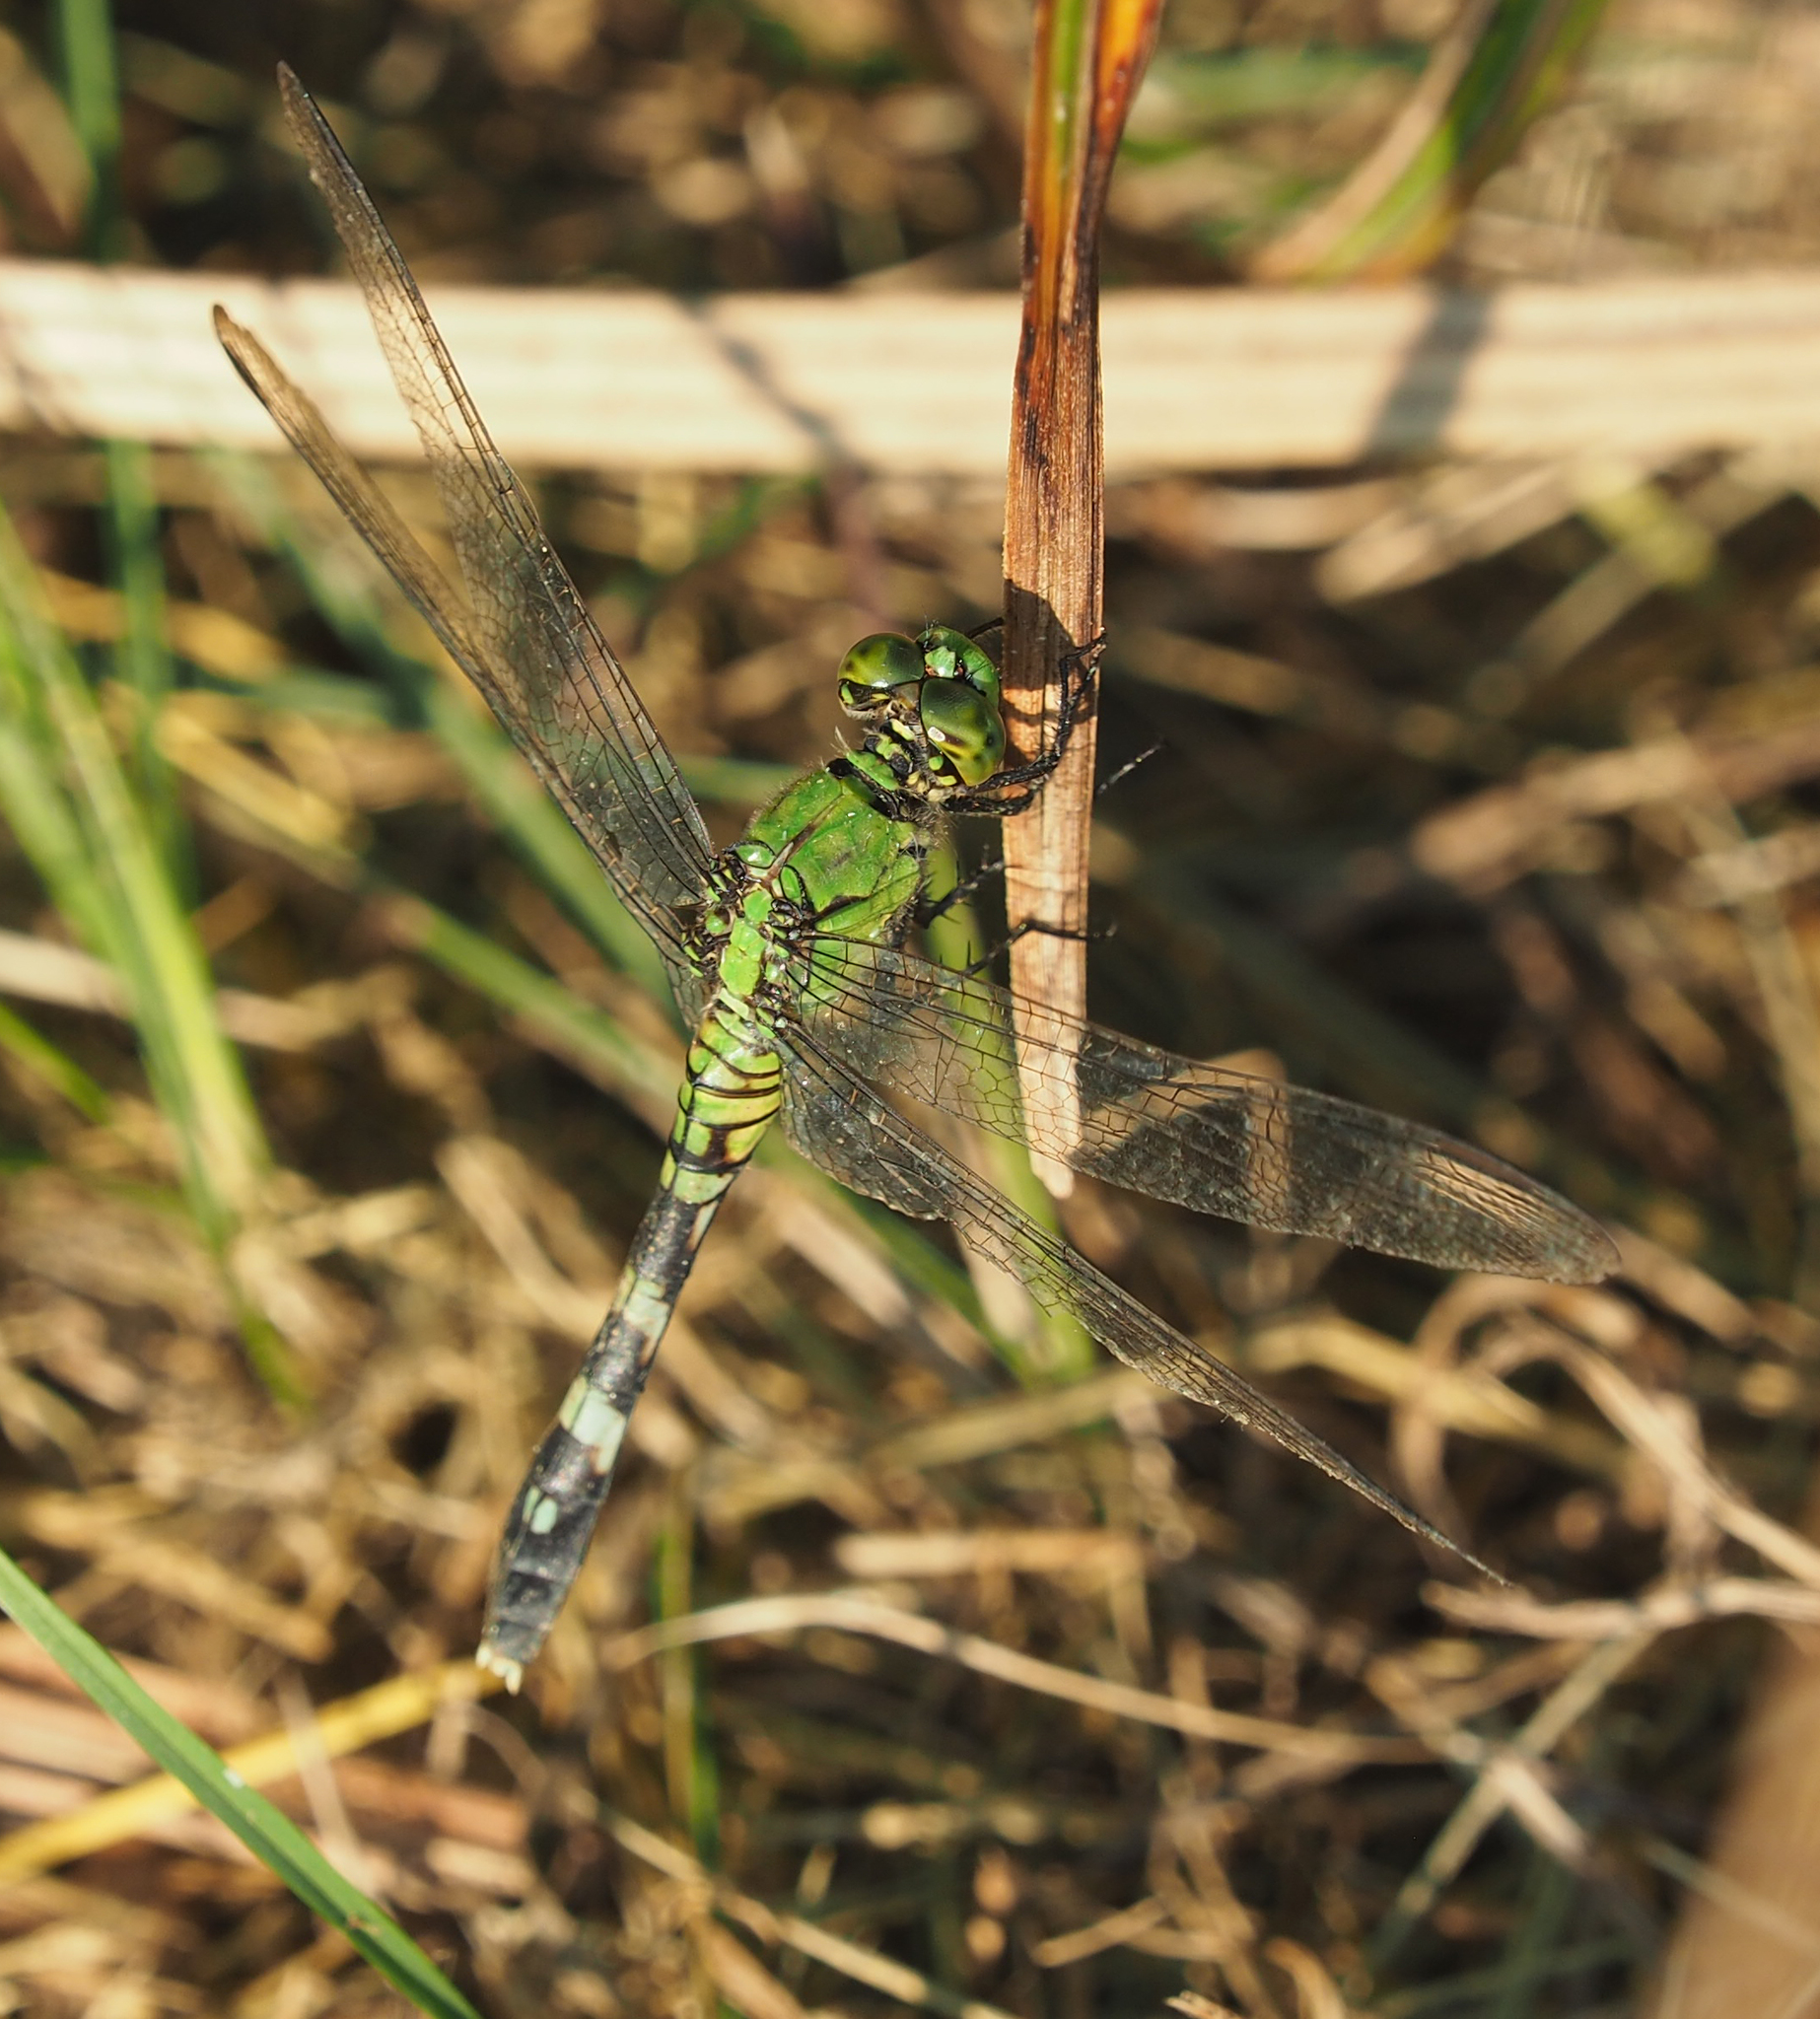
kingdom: Animalia
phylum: Arthropoda
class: Insecta
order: Odonata
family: Libellulidae
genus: Erythemis
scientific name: Erythemis simplicicollis
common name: Eastern pondhawk
